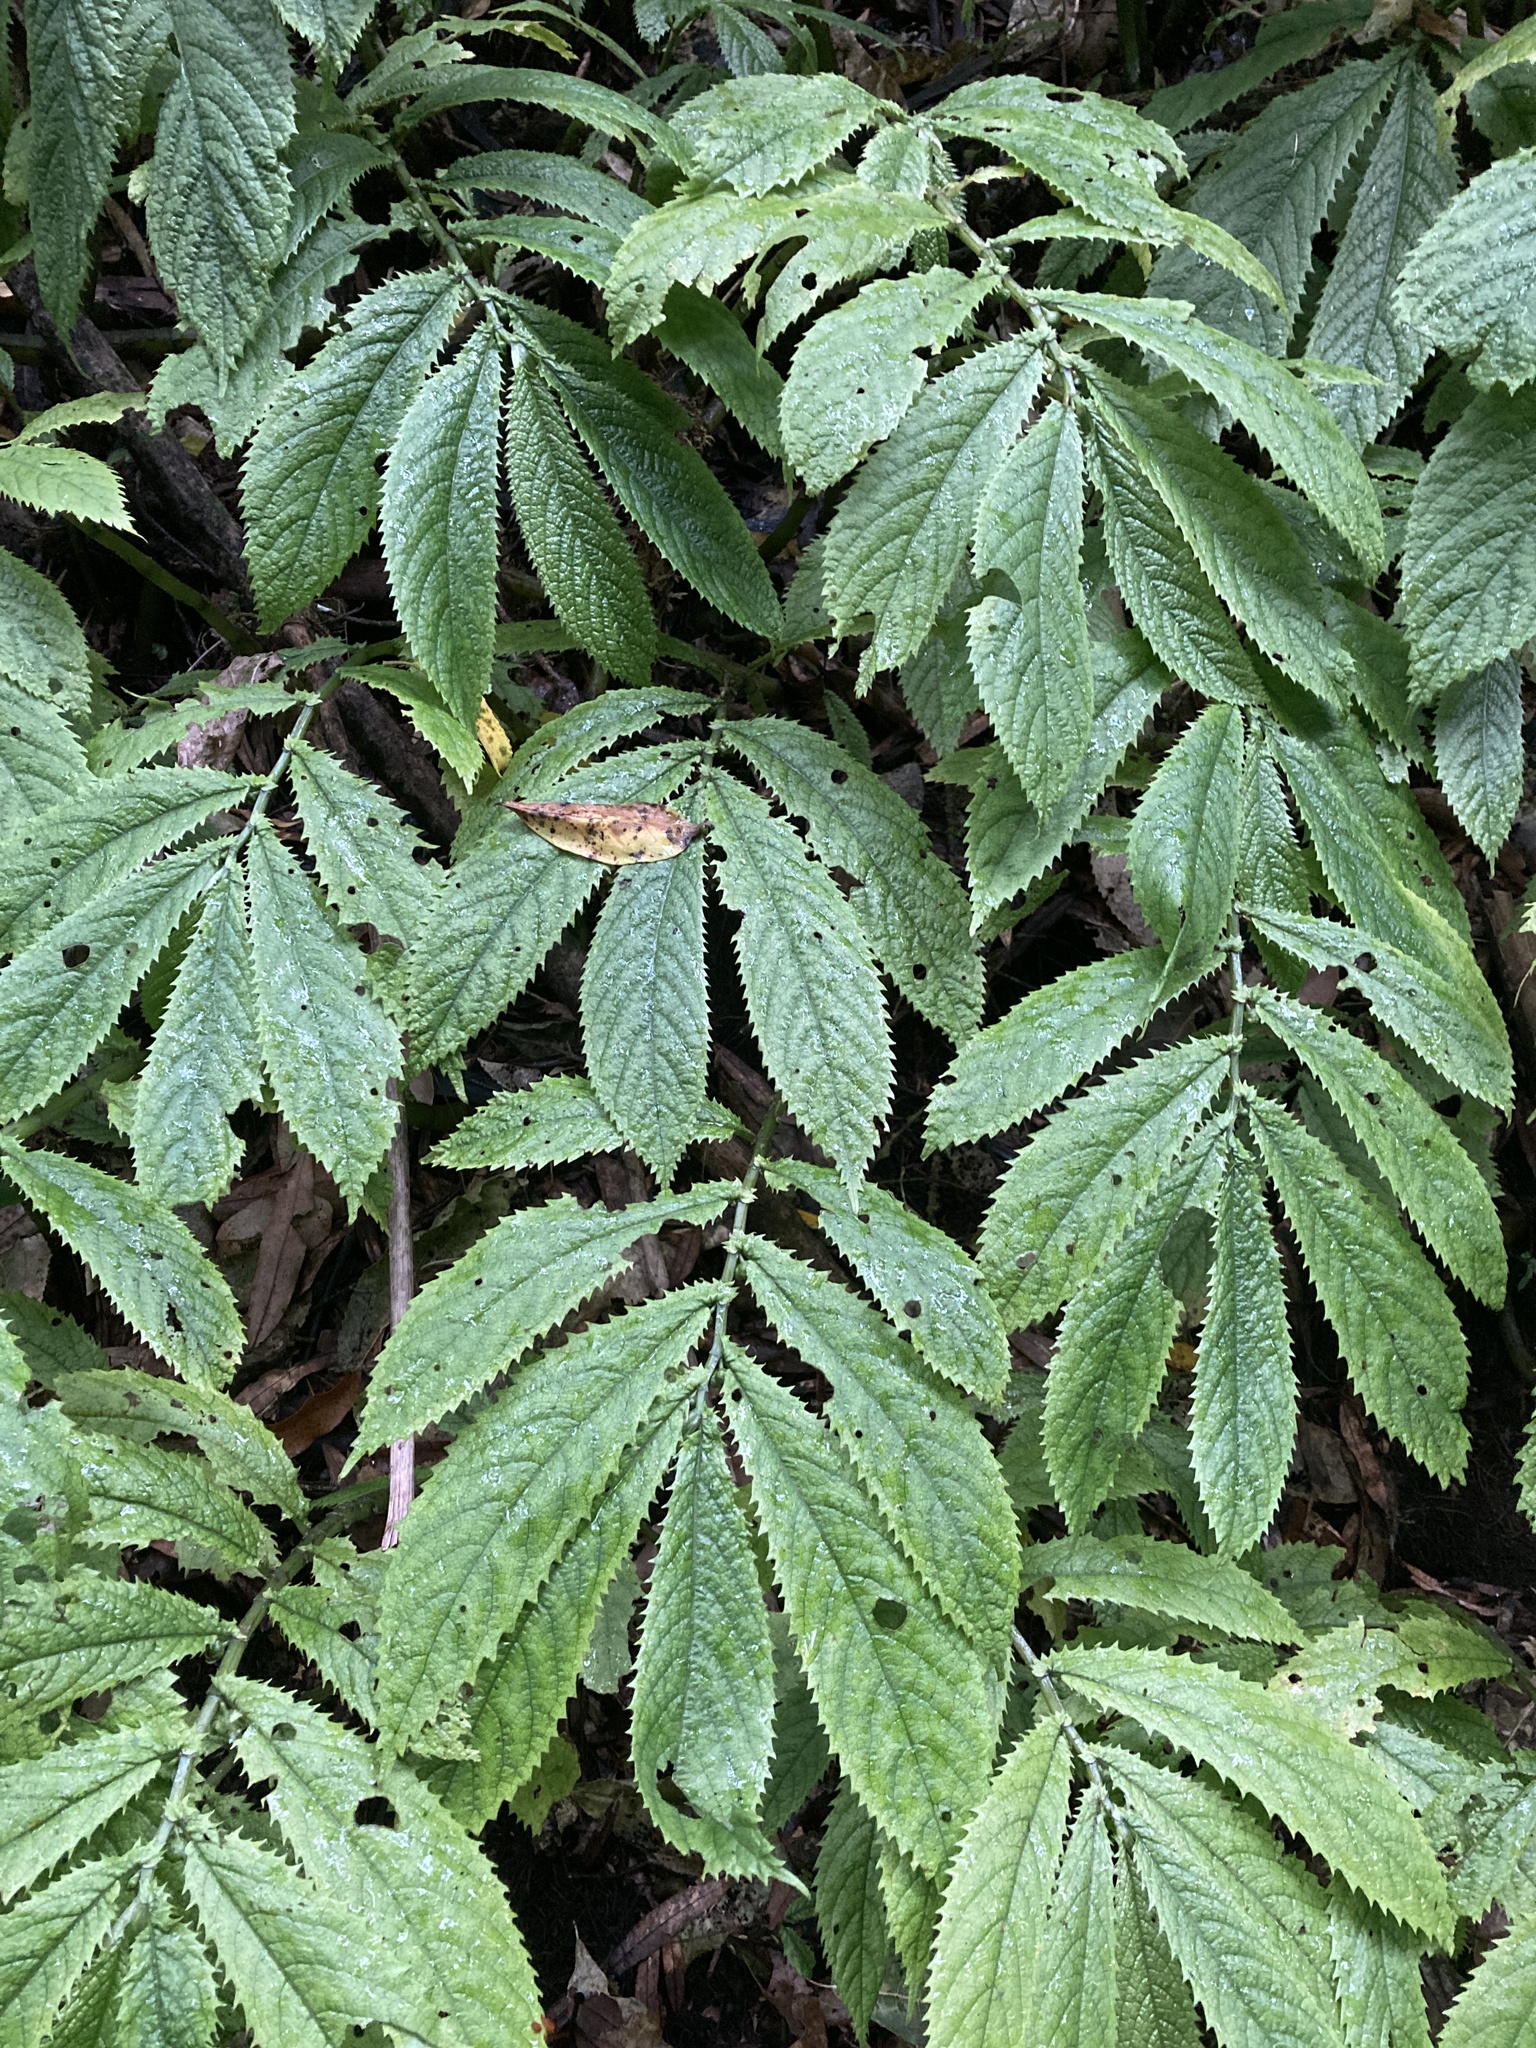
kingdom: Plantae
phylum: Tracheophyta
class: Magnoliopsida
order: Rosales
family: Urticaceae
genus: Elatostema
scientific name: Elatostema rugosum
